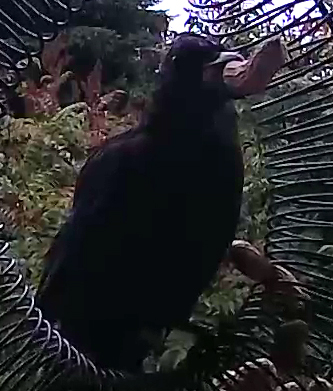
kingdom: Animalia
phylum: Chordata
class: Aves
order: Passeriformes
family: Corvidae
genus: Cyanocitta
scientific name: Cyanocitta stelleri
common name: Steller's jay
